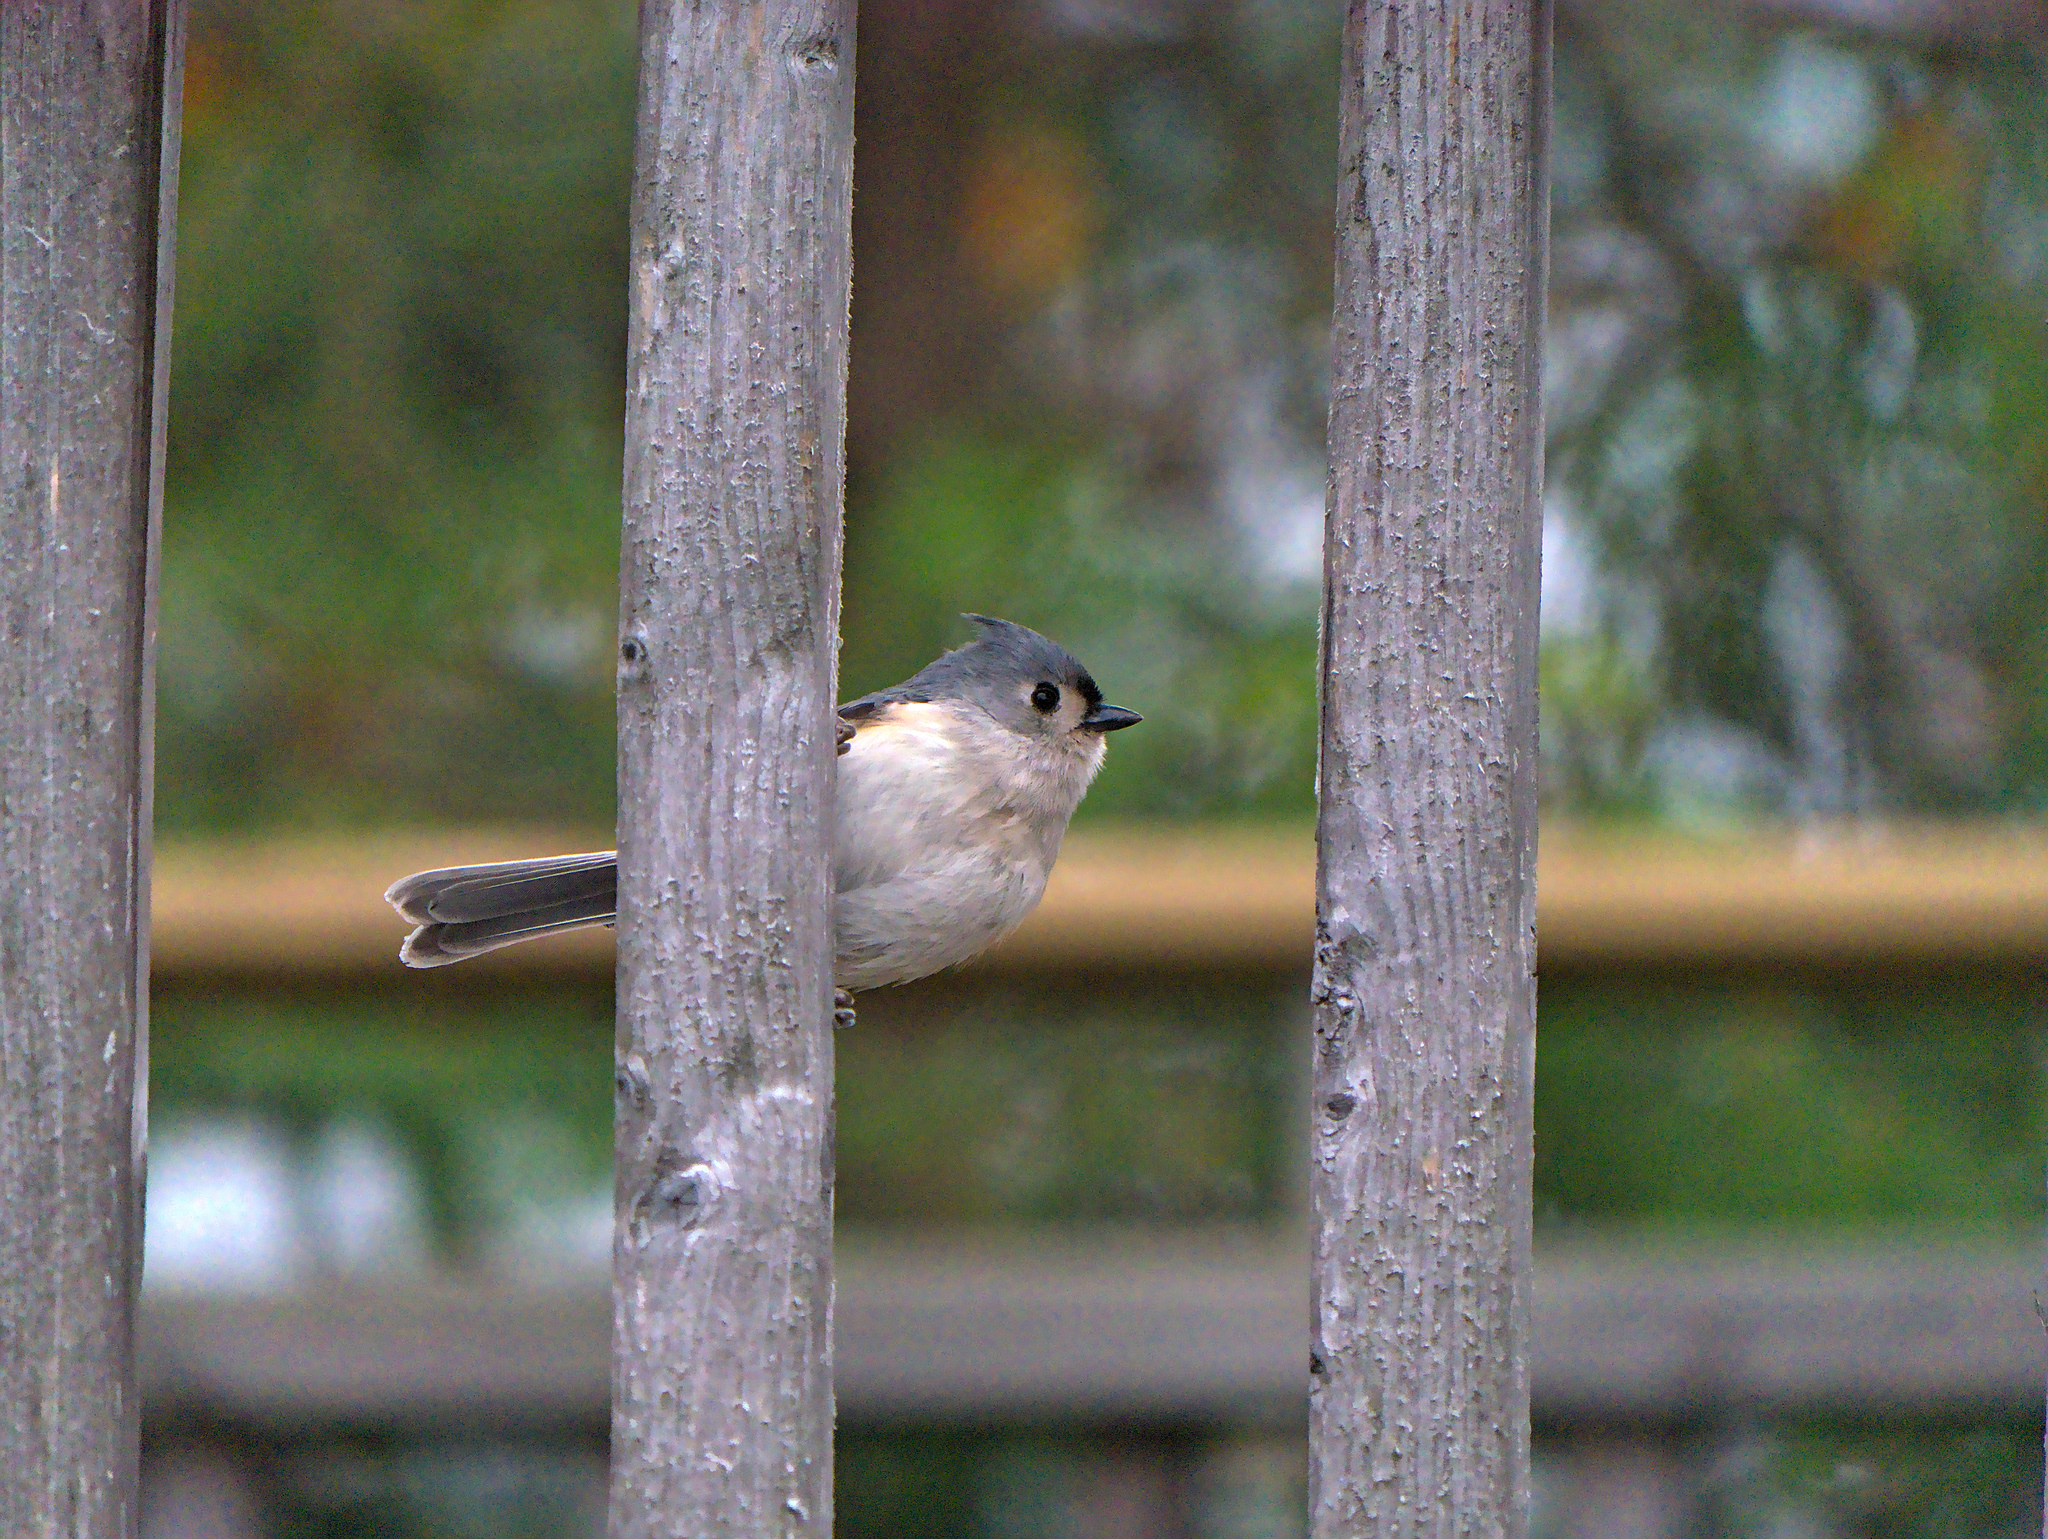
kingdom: Animalia
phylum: Chordata
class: Aves
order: Passeriformes
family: Paridae
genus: Baeolophus
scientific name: Baeolophus bicolor
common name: Tufted titmouse
